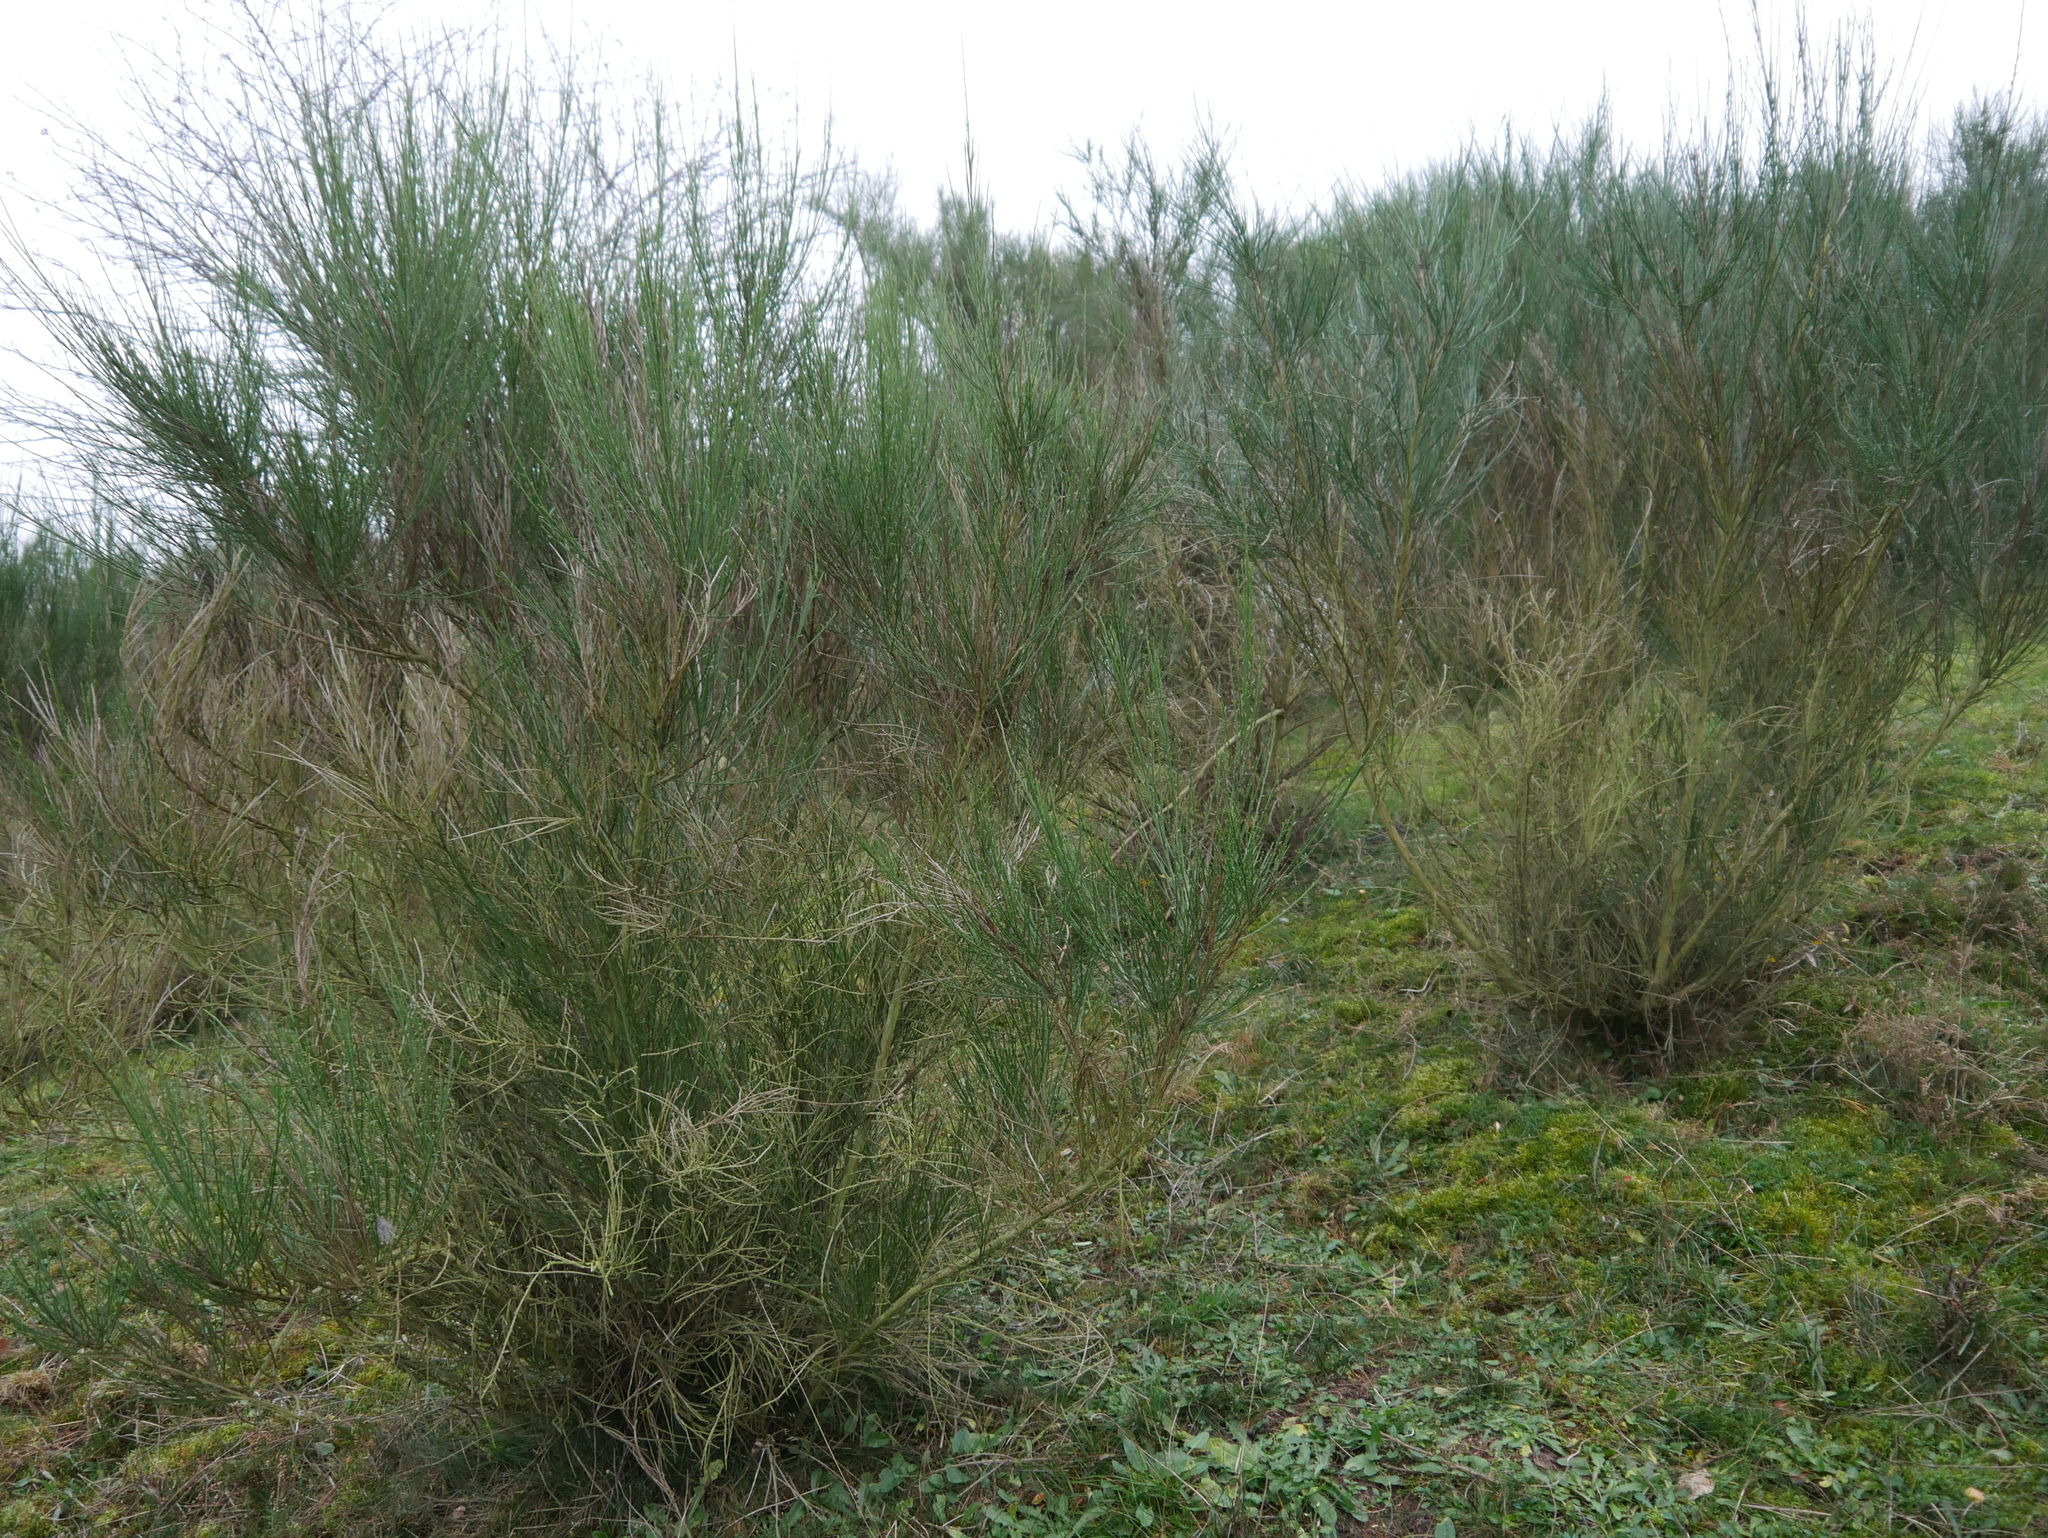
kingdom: Plantae
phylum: Tracheophyta
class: Magnoliopsida
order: Fabales
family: Fabaceae
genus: Cytisus
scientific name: Cytisus scoparius
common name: Scotch broom
